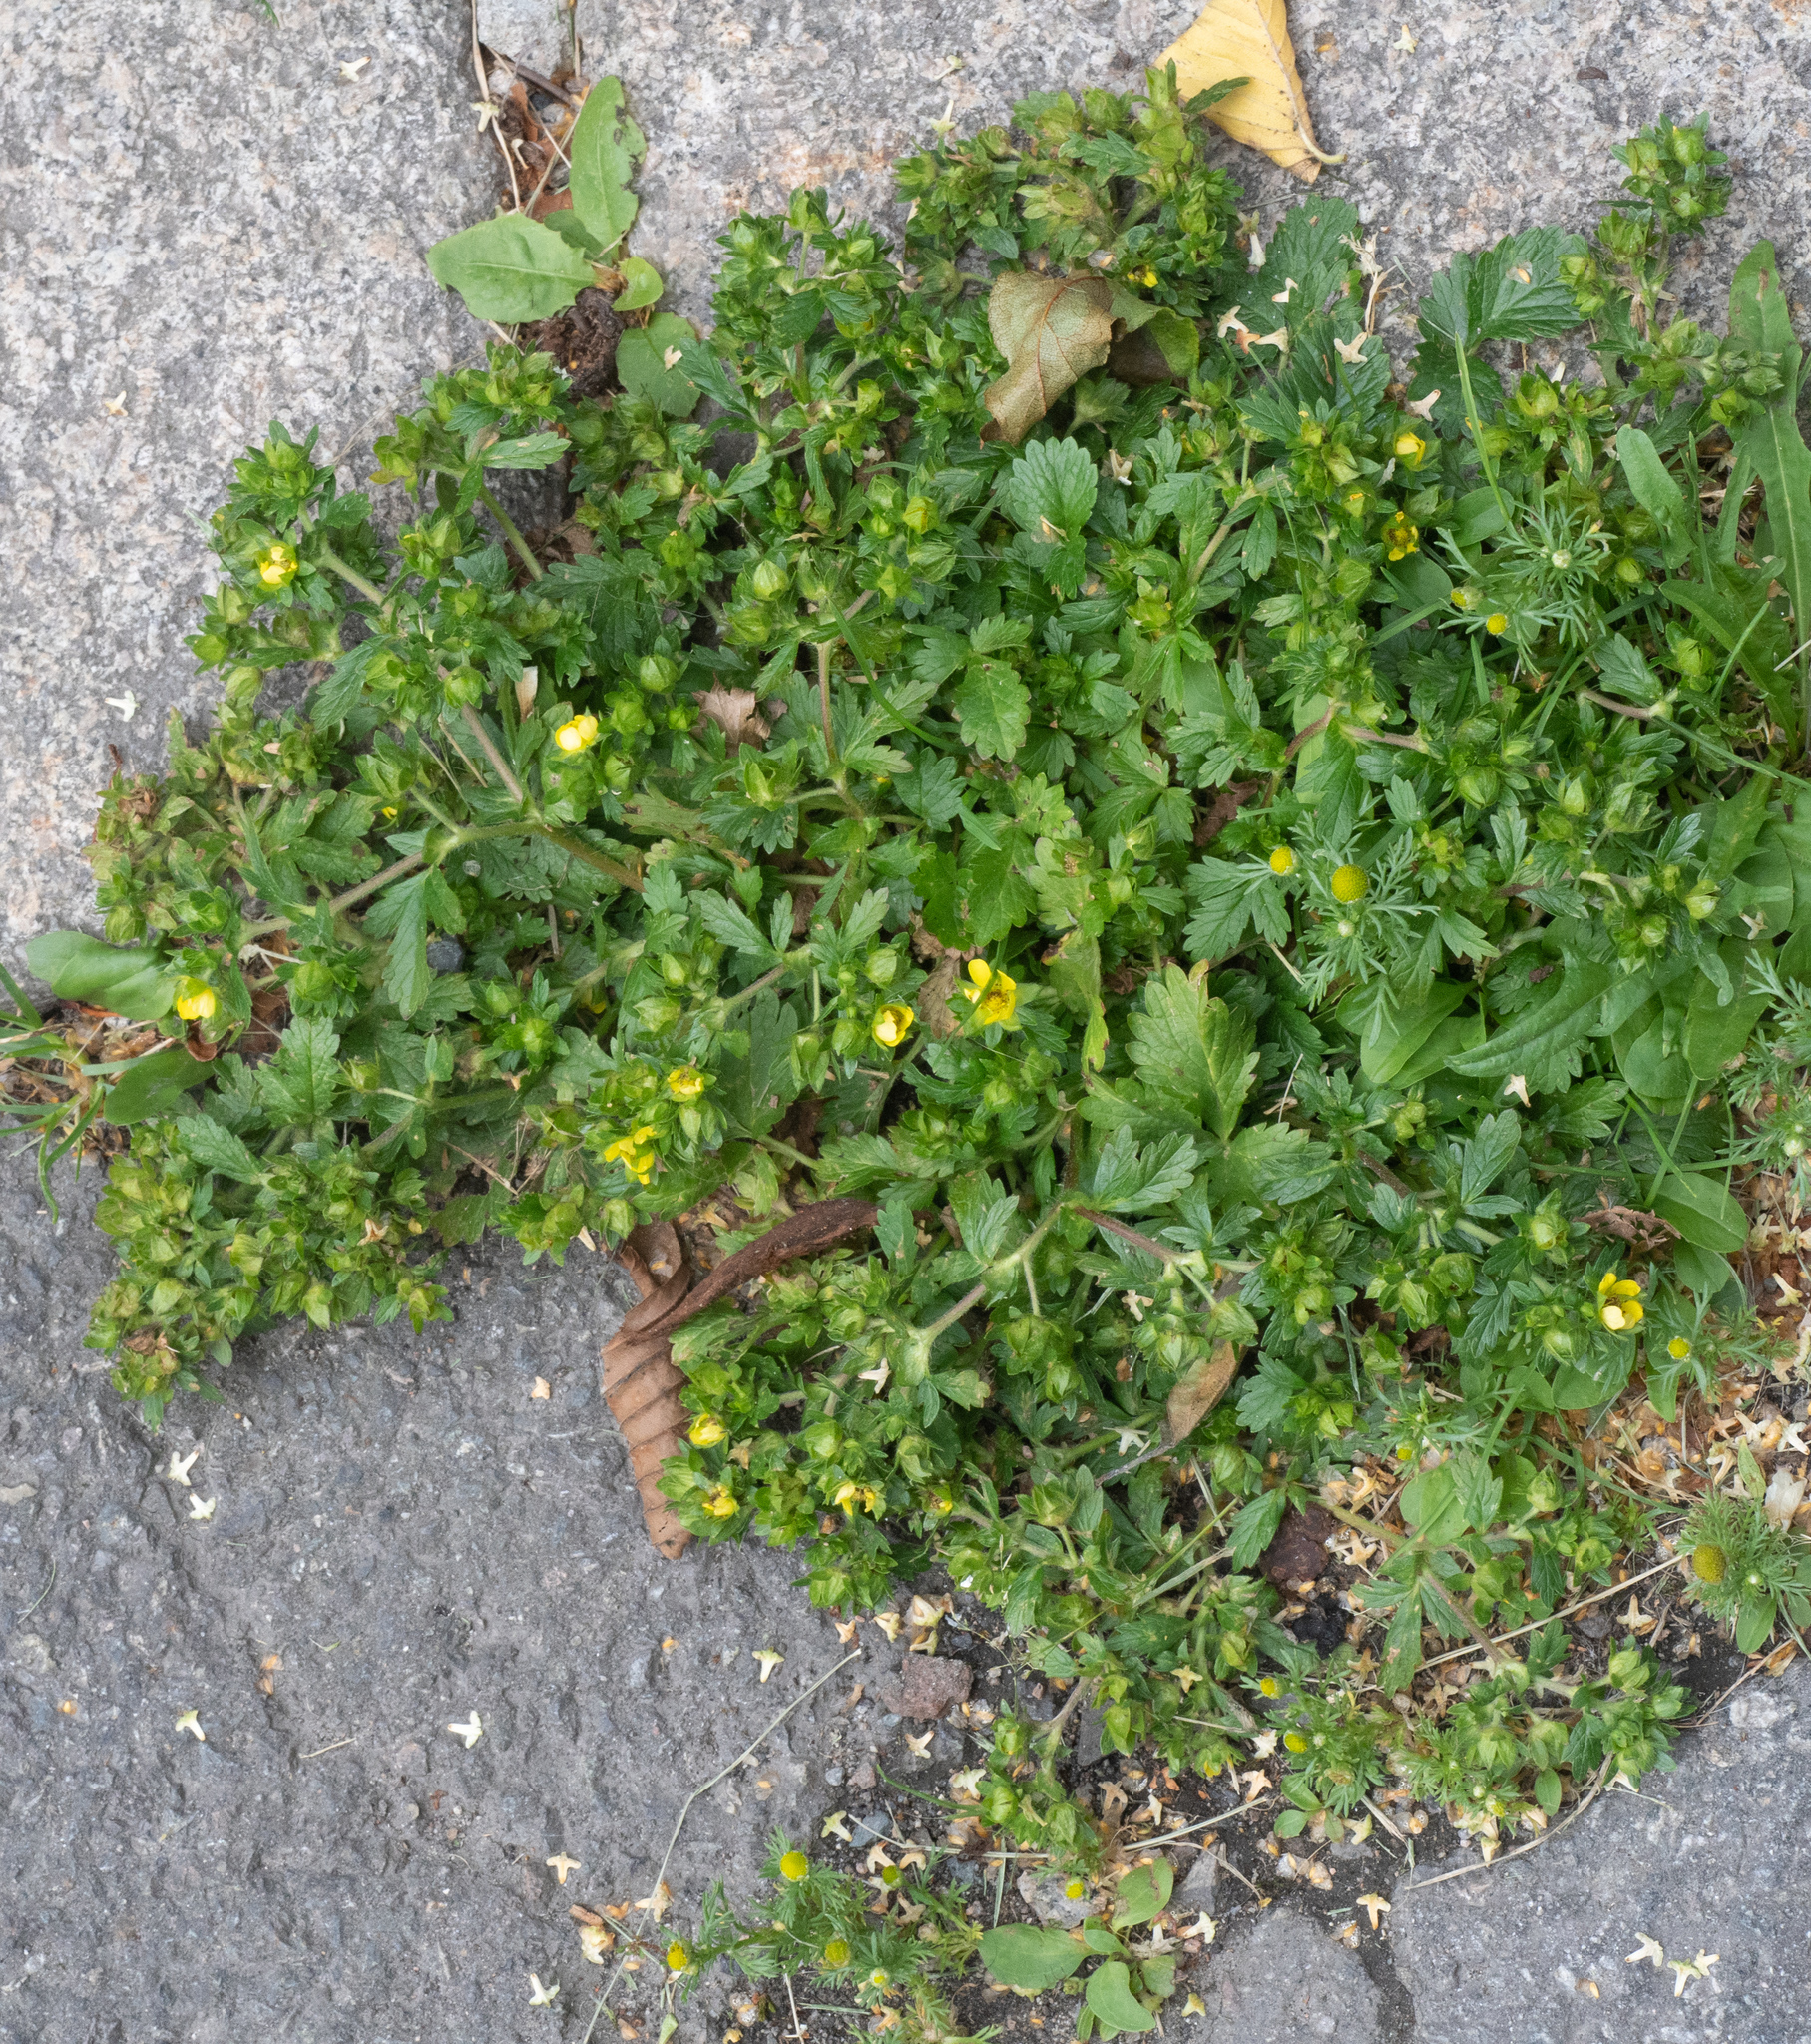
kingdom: Plantae
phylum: Tracheophyta
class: Magnoliopsida
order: Rosales
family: Rosaceae
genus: Potentilla
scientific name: Potentilla norvegica
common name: Ternate-leaved cinquefoil
